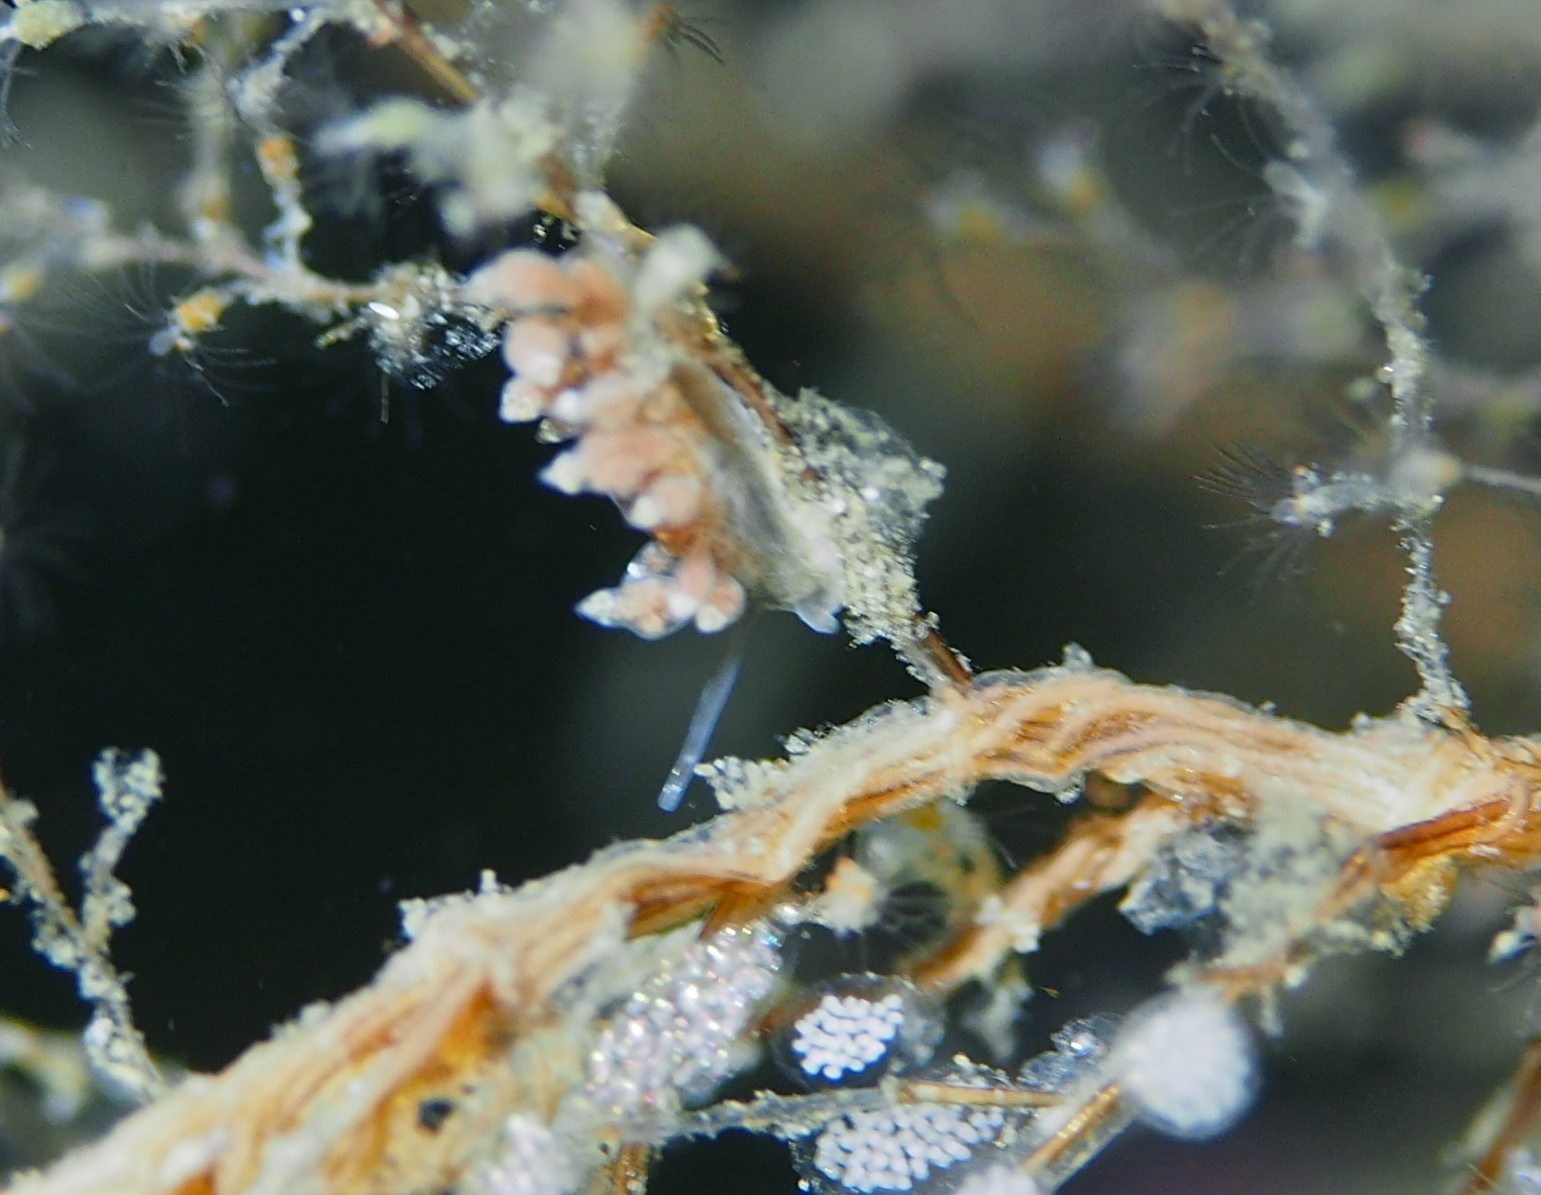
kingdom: Animalia
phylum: Mollusca
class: Gastropoda
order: Nudibranchia
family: Eubranchidae
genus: Eubranchus
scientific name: Eubranchus exiguus
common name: Balloon aeolis
